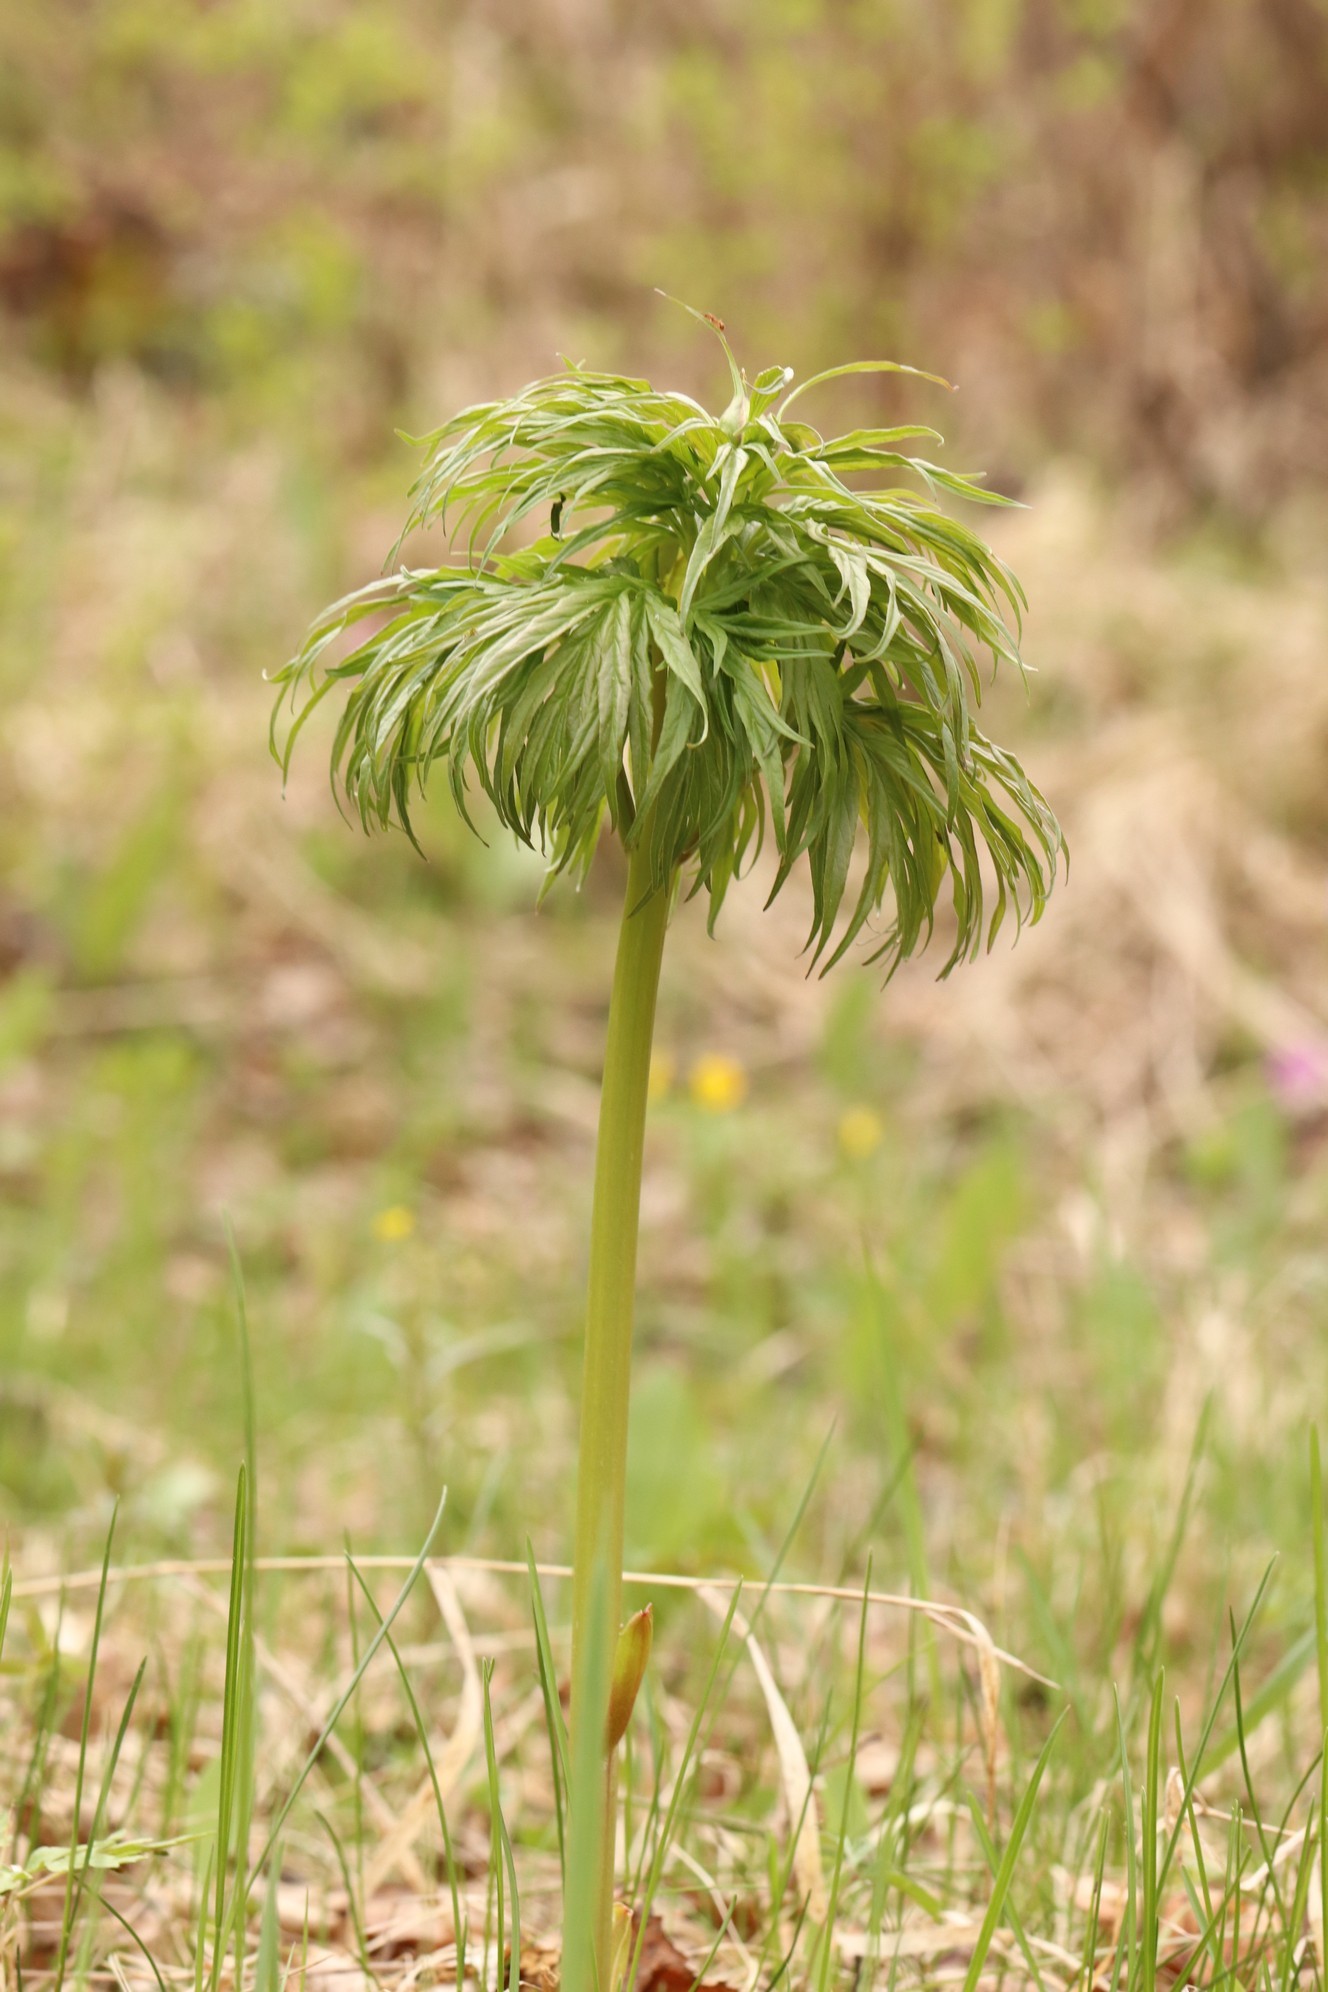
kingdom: Plantae
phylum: Tracheophyta
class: Magnoliopsida
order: Saxifragales
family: Paeoniaceae
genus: Paeonia
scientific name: Paeonia anomala
